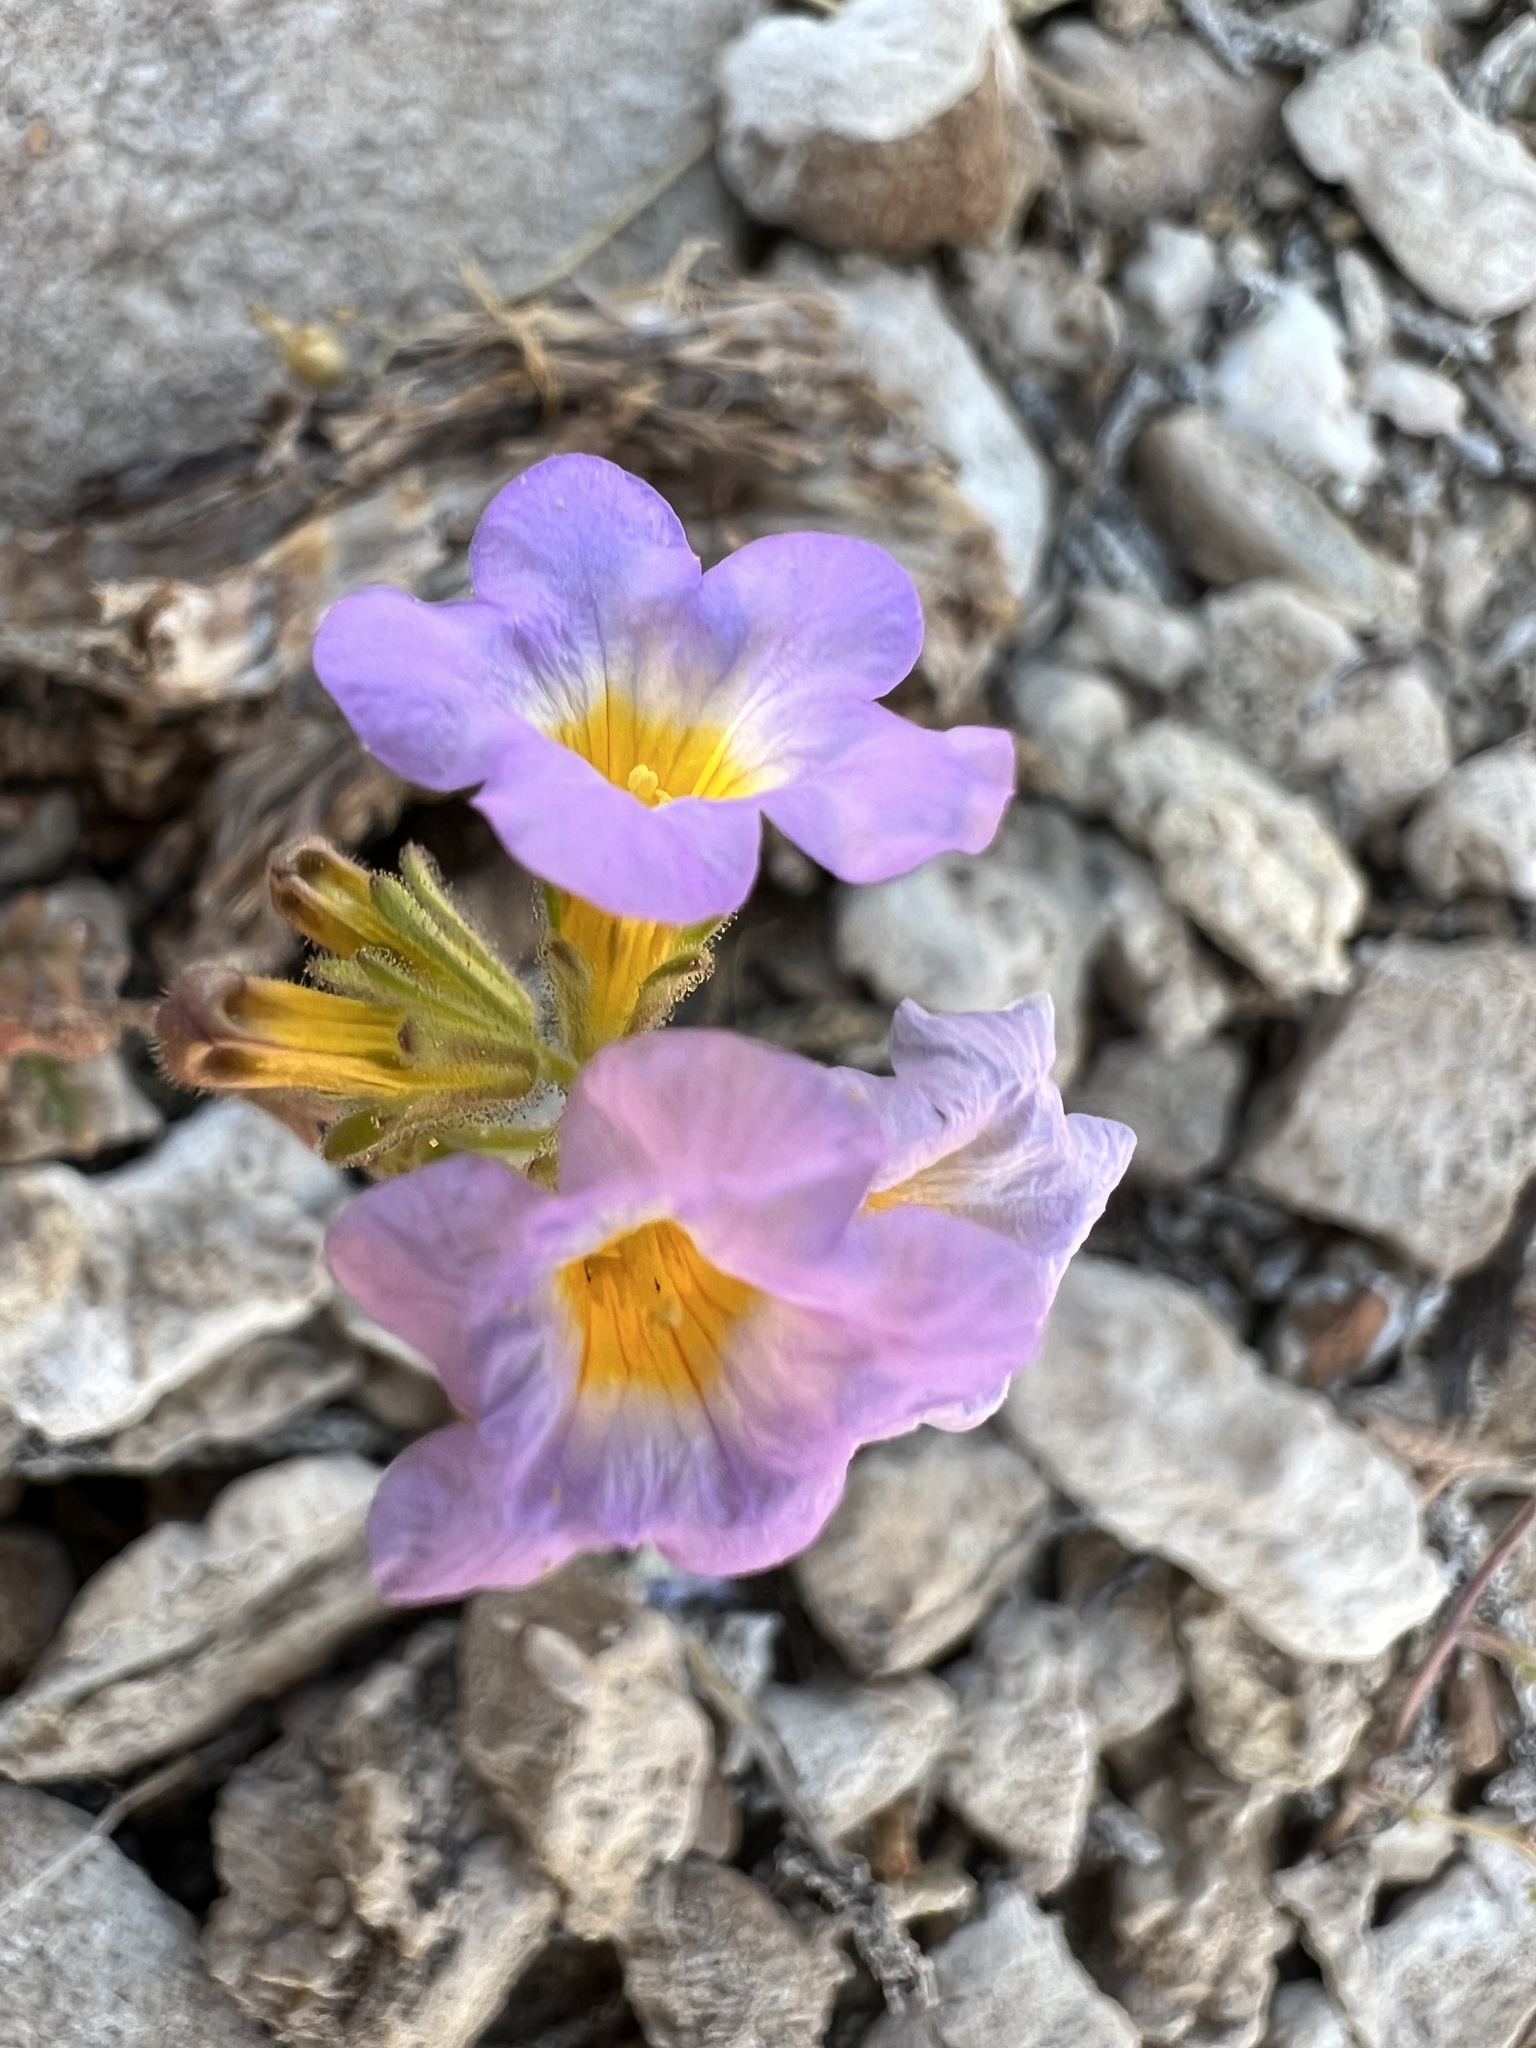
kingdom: Plantae
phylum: Tracheophyta
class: Magnoliopsida
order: Boraginales
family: Hydrophyllaceae
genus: Phacelia
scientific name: Phacelia fremontii
